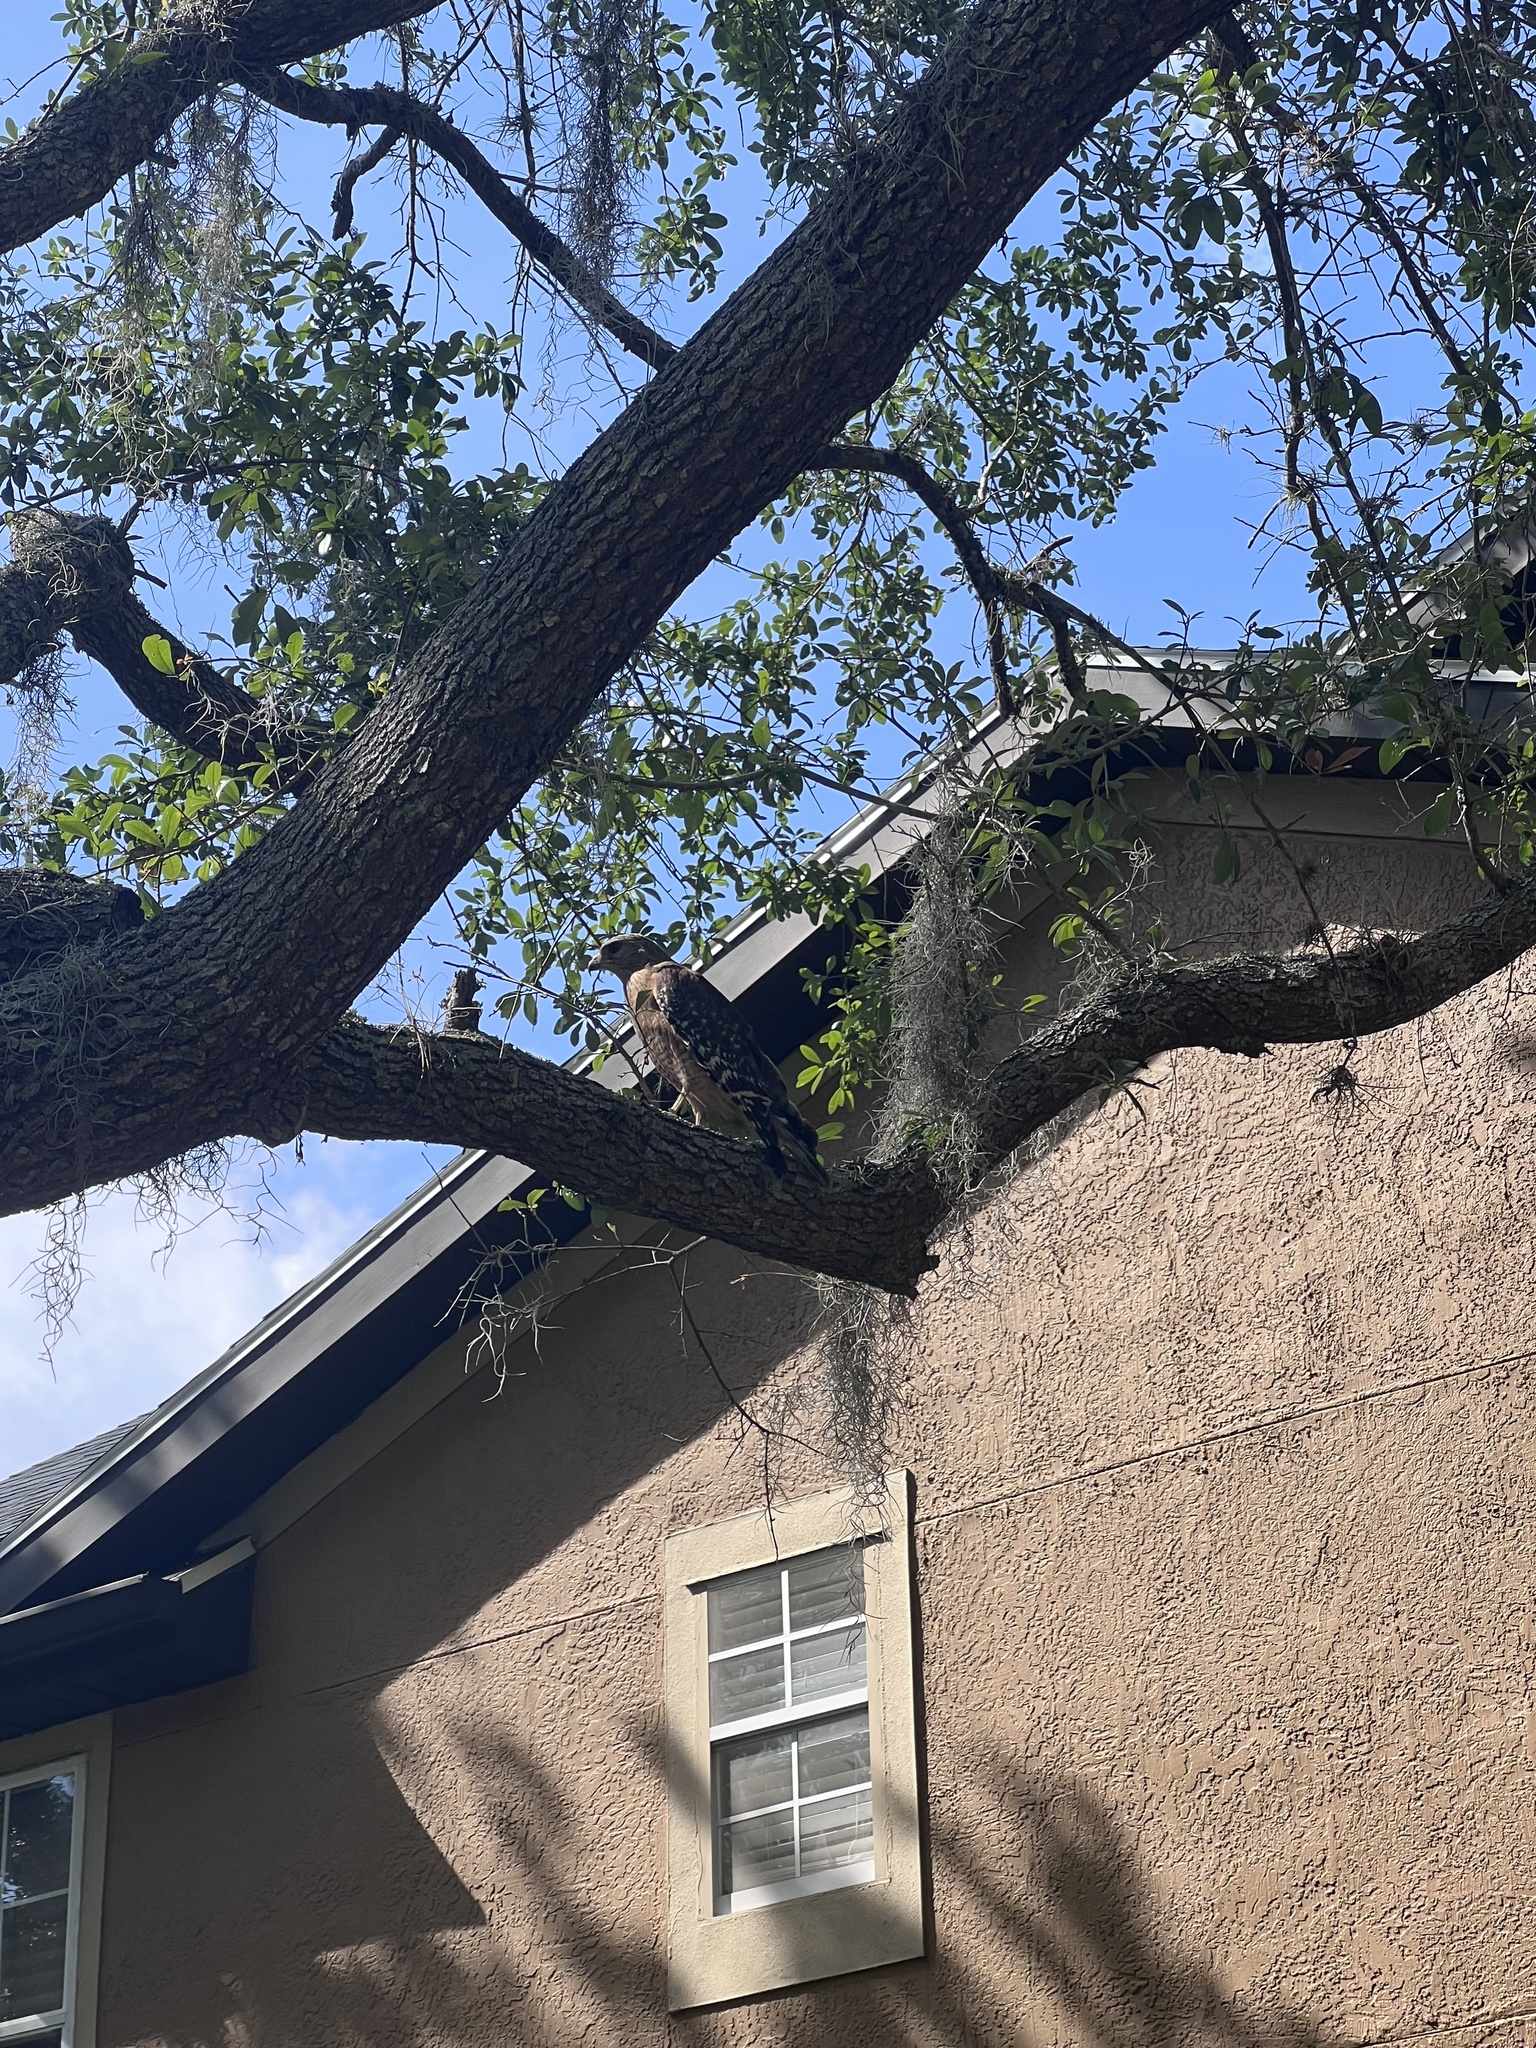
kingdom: Animalia
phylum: Chordata
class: Aves
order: Accipitriformes
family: Accipitridae
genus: Buteo
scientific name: Buteo lineatus
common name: Red-shouldered hawk
